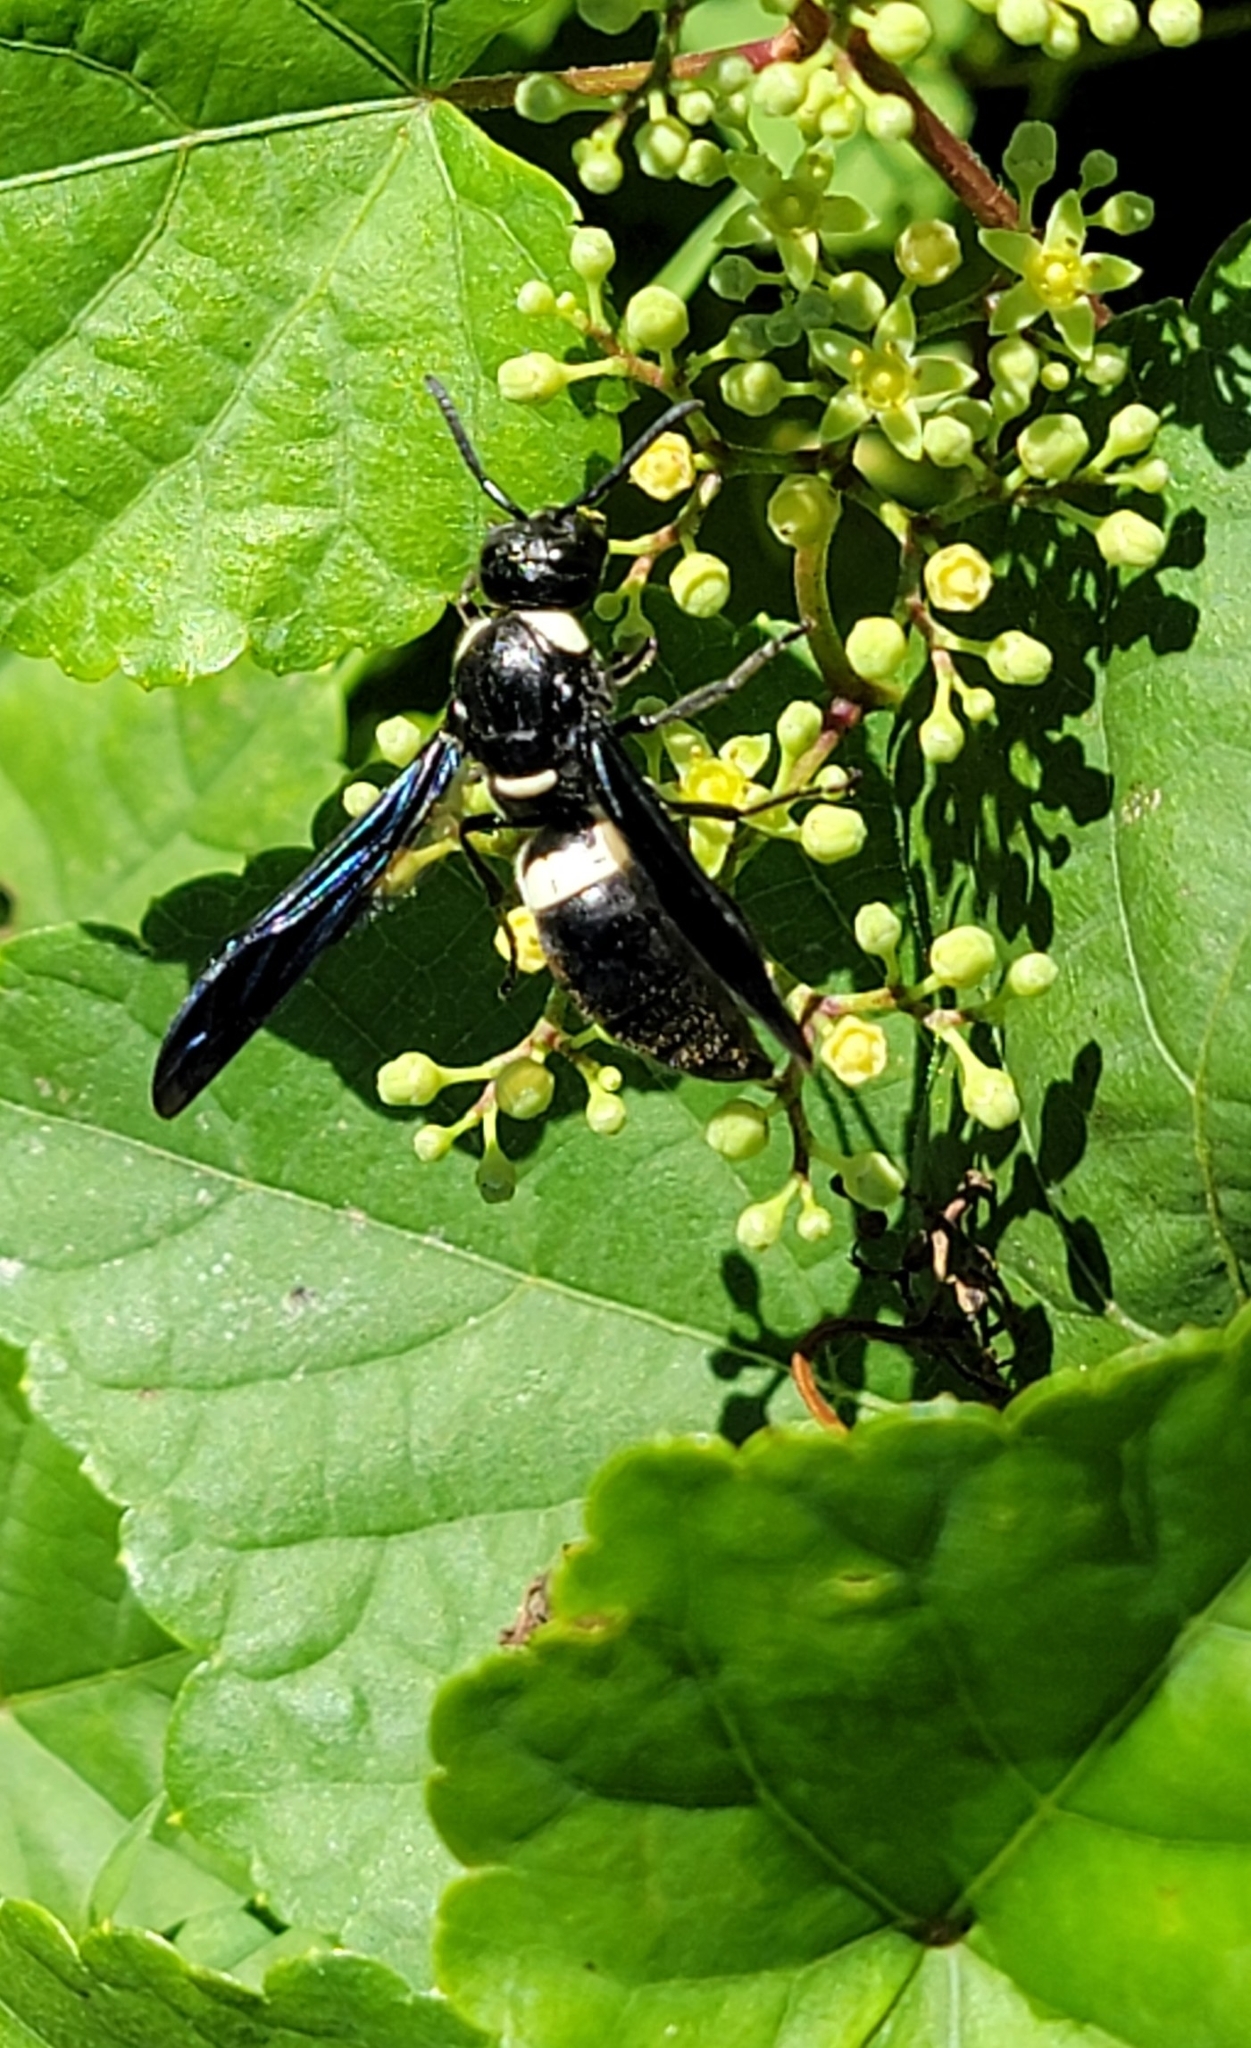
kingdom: Animalia
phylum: Arthropoda
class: Insecta
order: Hymenoptera
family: Eumenidae
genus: Monobia
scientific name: Monobia quadridens
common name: Four-toothed mason wasp
